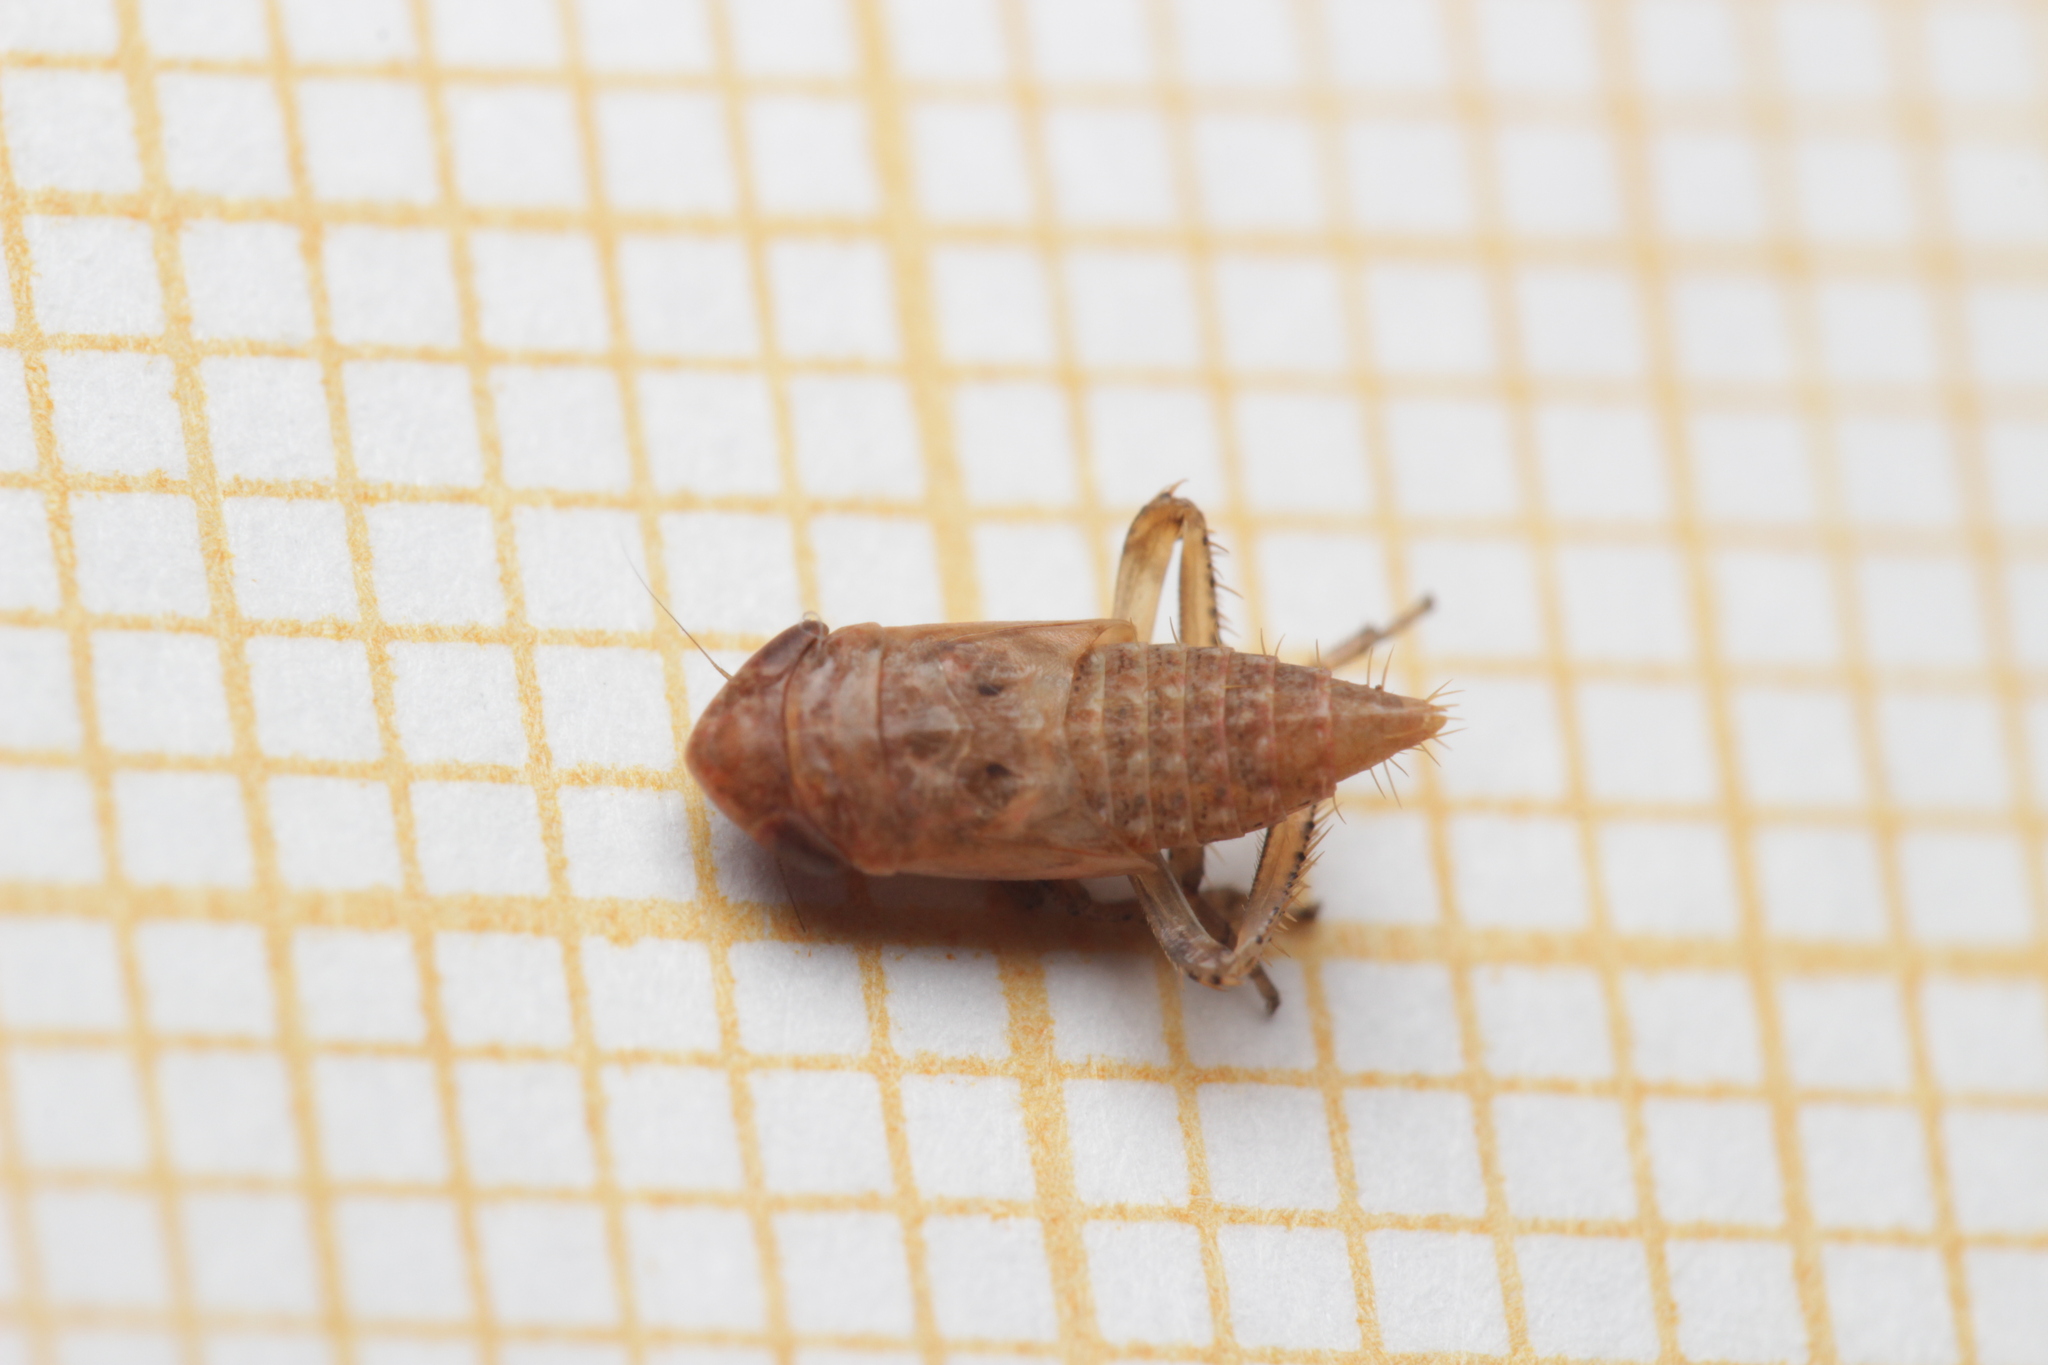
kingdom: Animalia
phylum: Arthropoda
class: Insecta
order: Hemiptera
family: Cicadellidae
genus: Thamnotettix
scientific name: Thamnotettix exemtus
